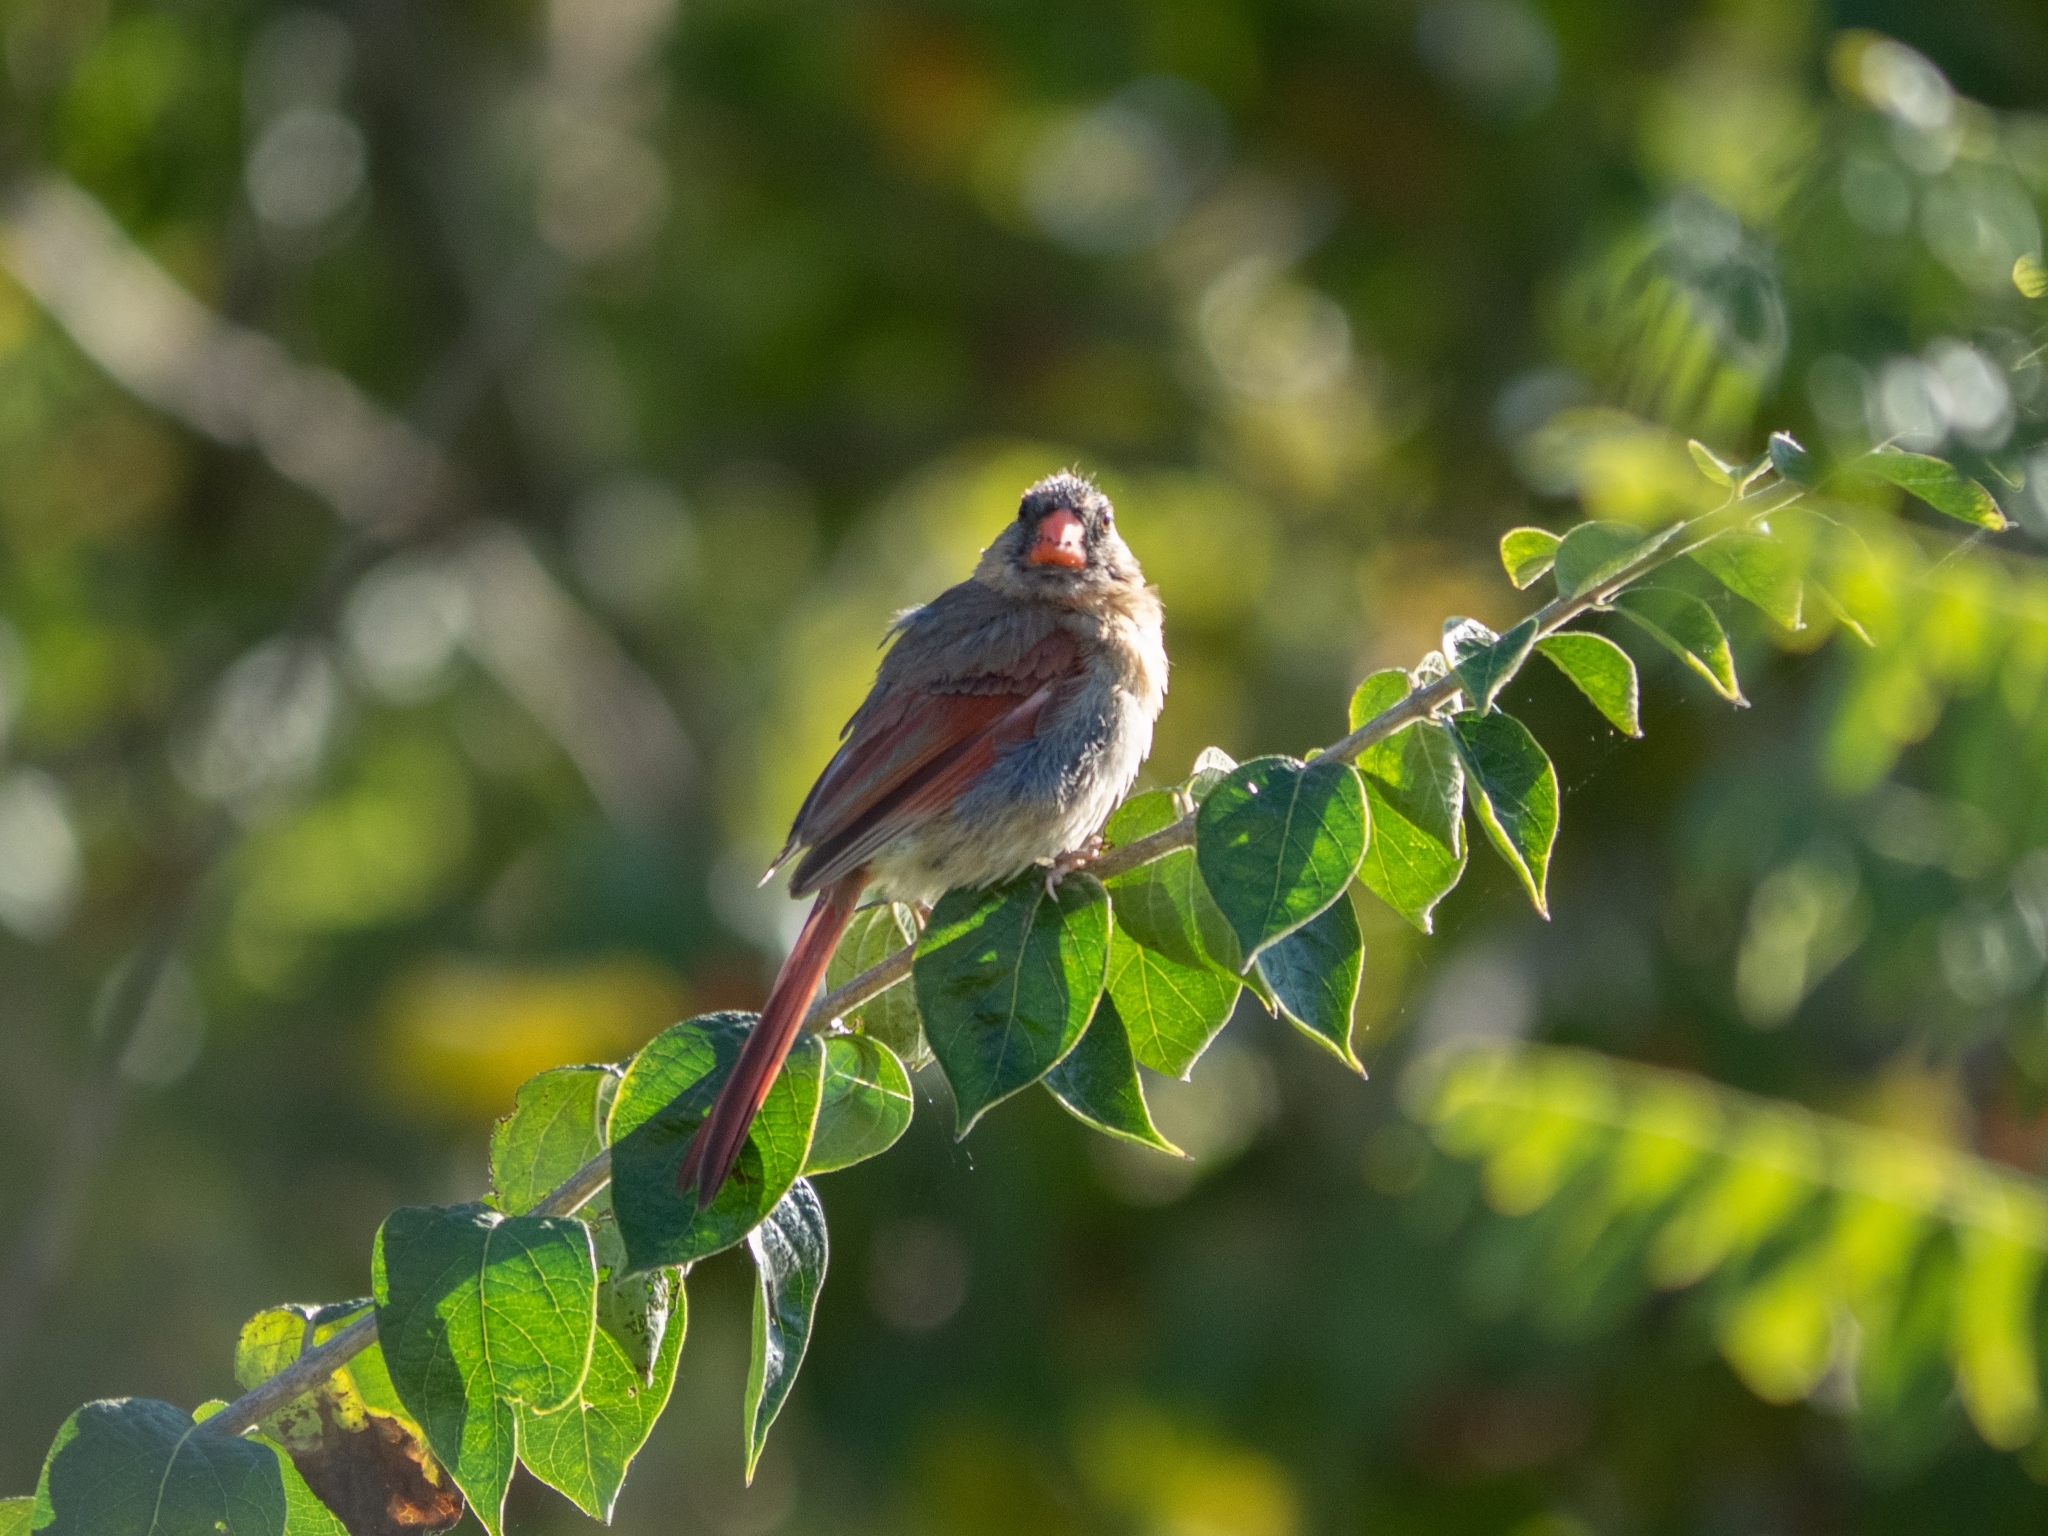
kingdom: Animalia
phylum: Chordata
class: Aves
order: Passeriformes
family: Cardinalidae
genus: Cardinalis
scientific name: Cardinalis cardinalis
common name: Northern cardinal
